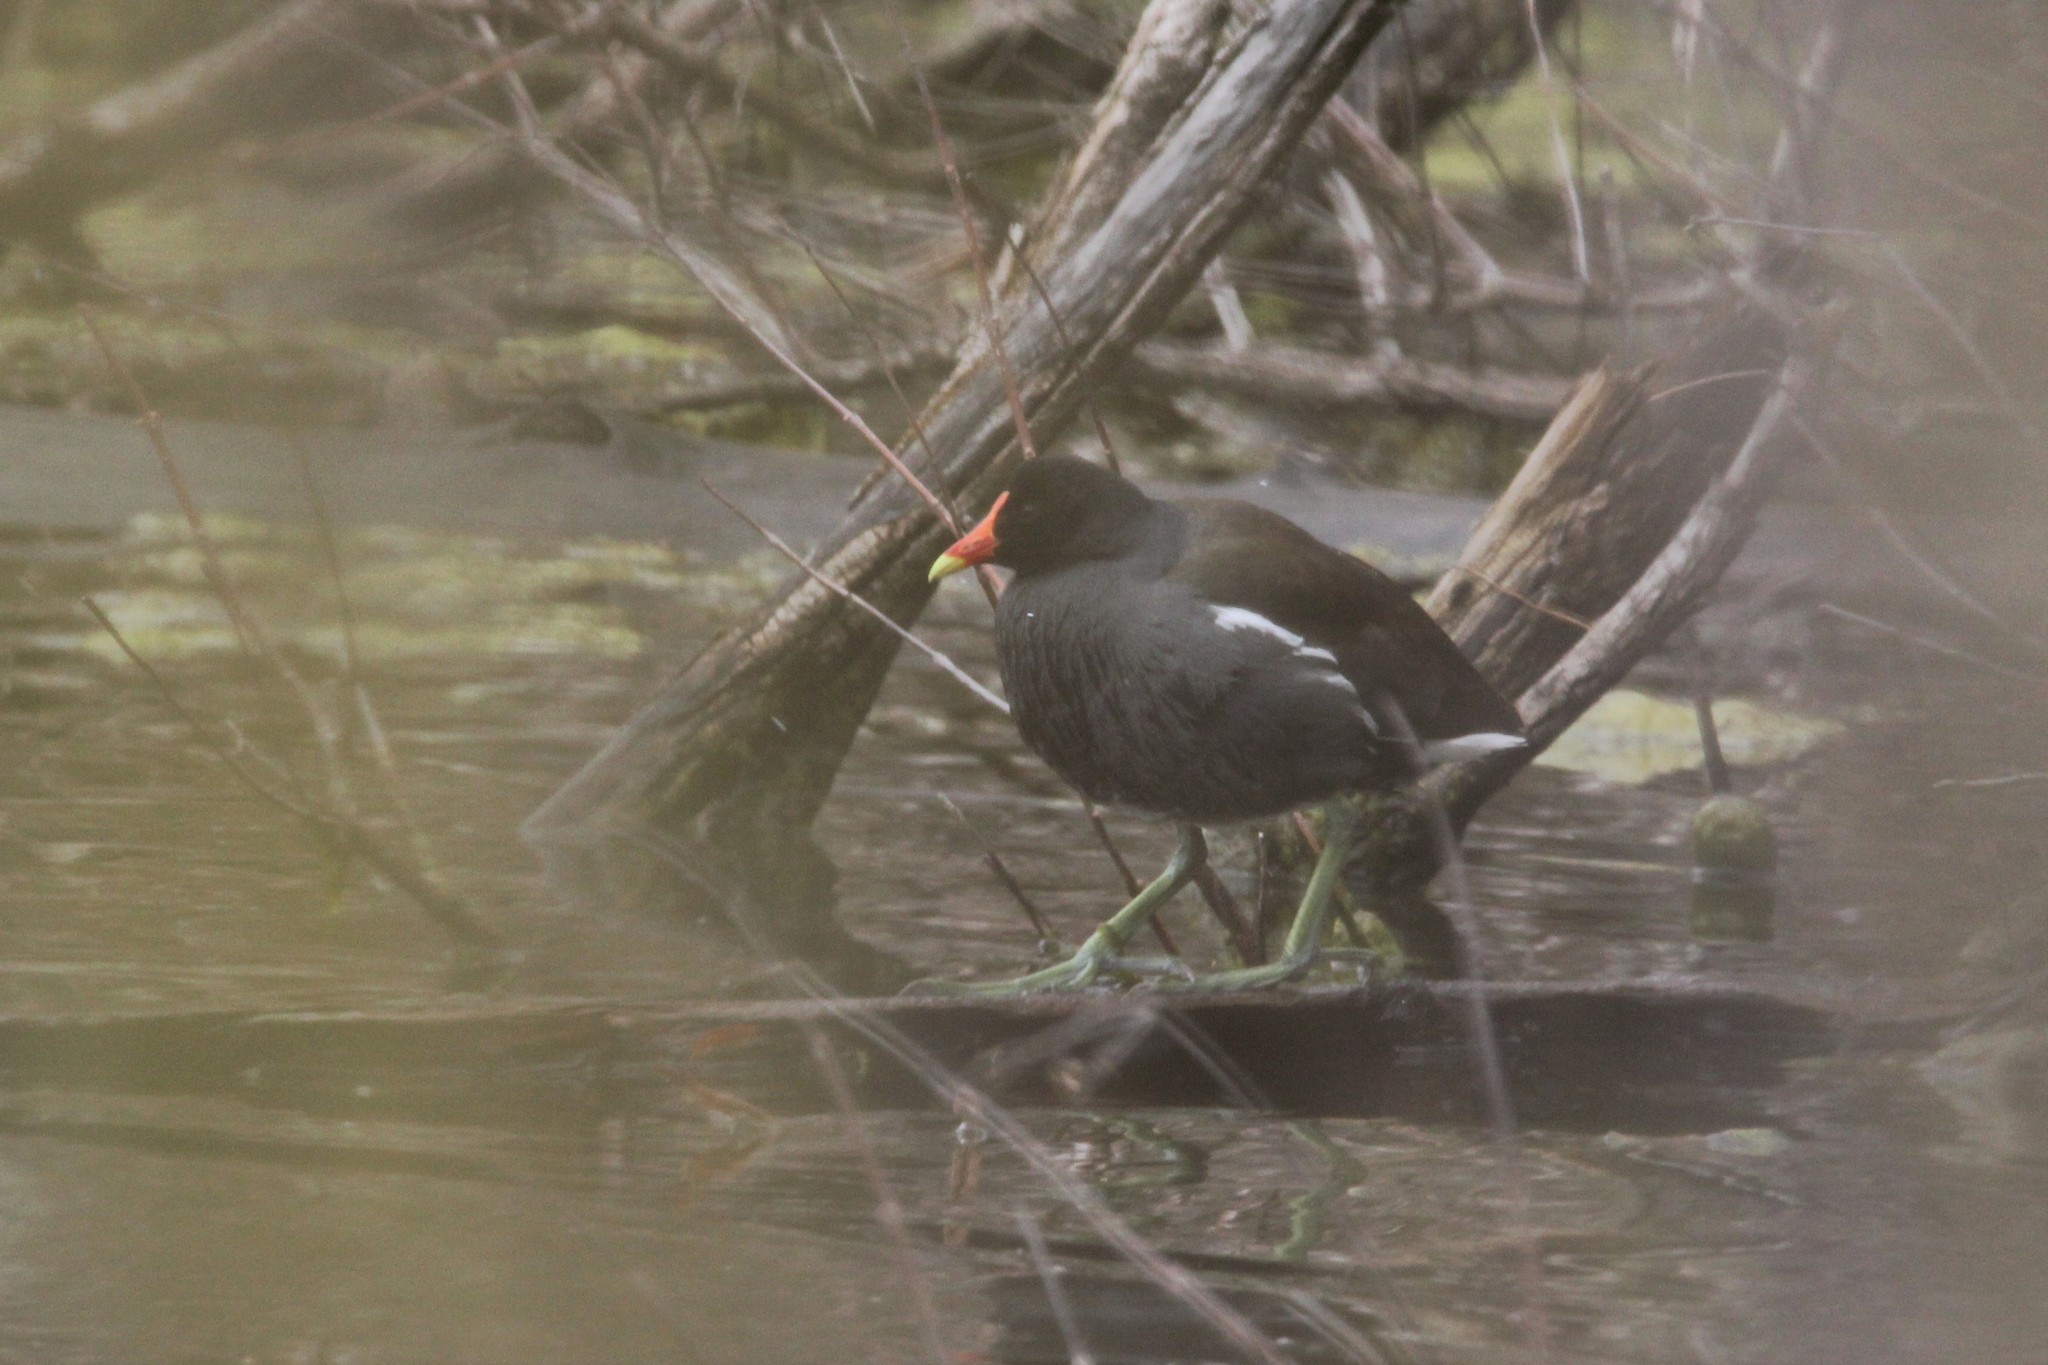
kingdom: Animalia
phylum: Chordata
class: Aves
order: Gruiformes
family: Rallidae
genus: Gallinula
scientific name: Gallinula chloropus
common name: Common moorhen
